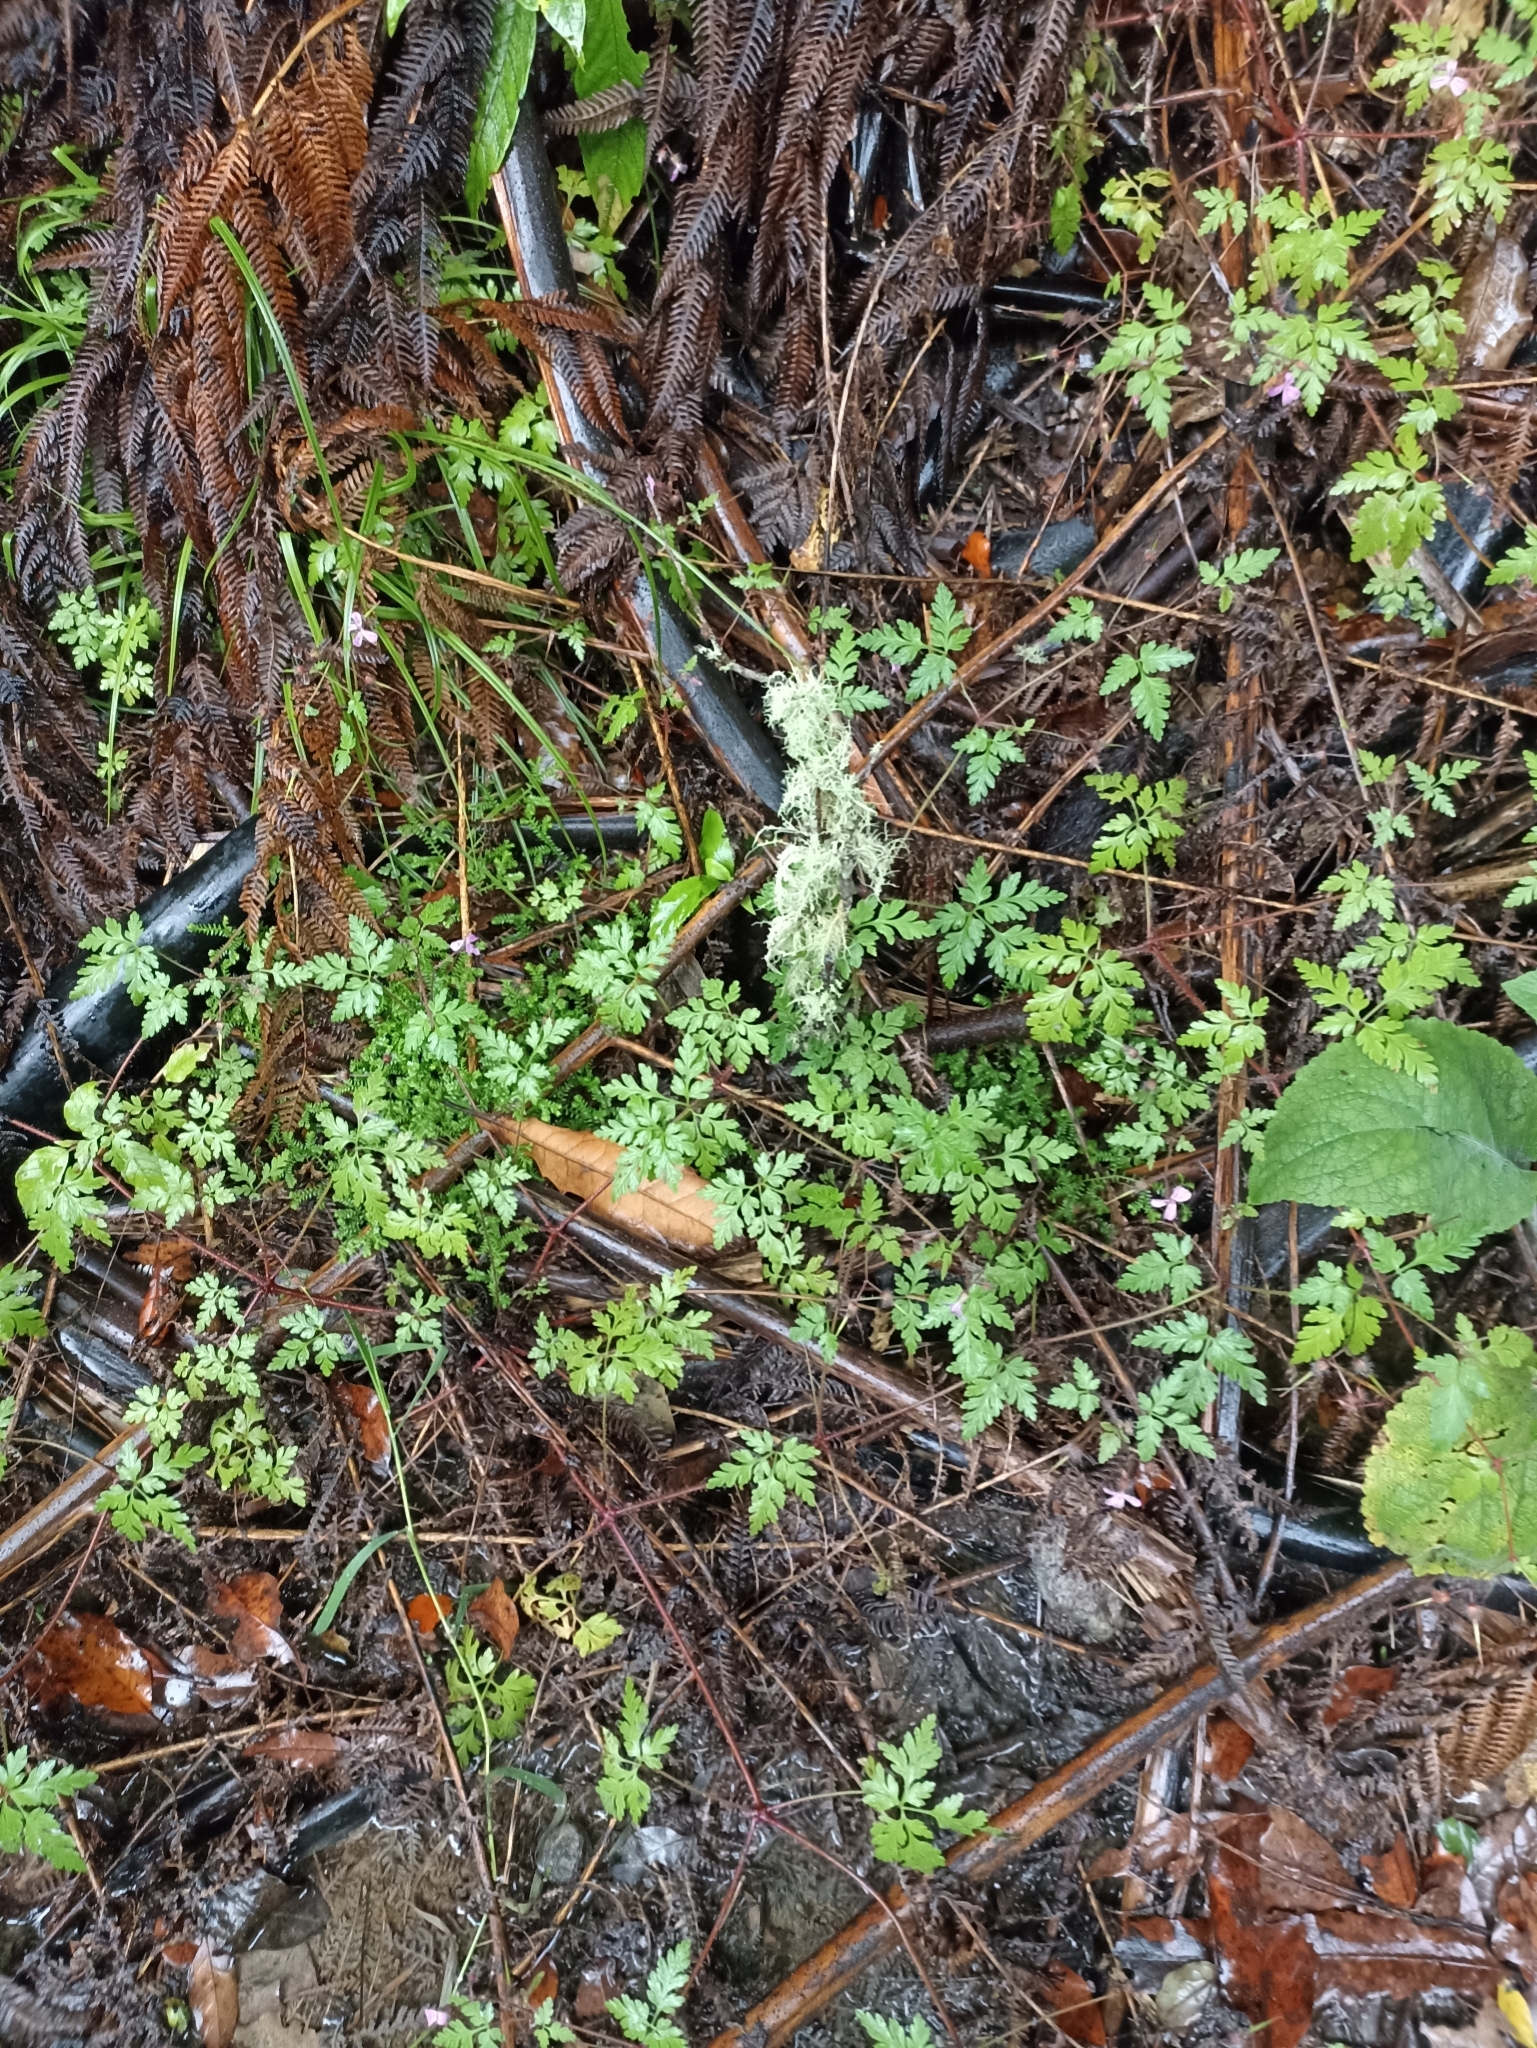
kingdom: Plantae
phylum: Tracheophyta
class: Magnoliopsida
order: Geraniales
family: Geraniaceae
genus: Geranium
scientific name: Geranium purpureum
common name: Little-robin
